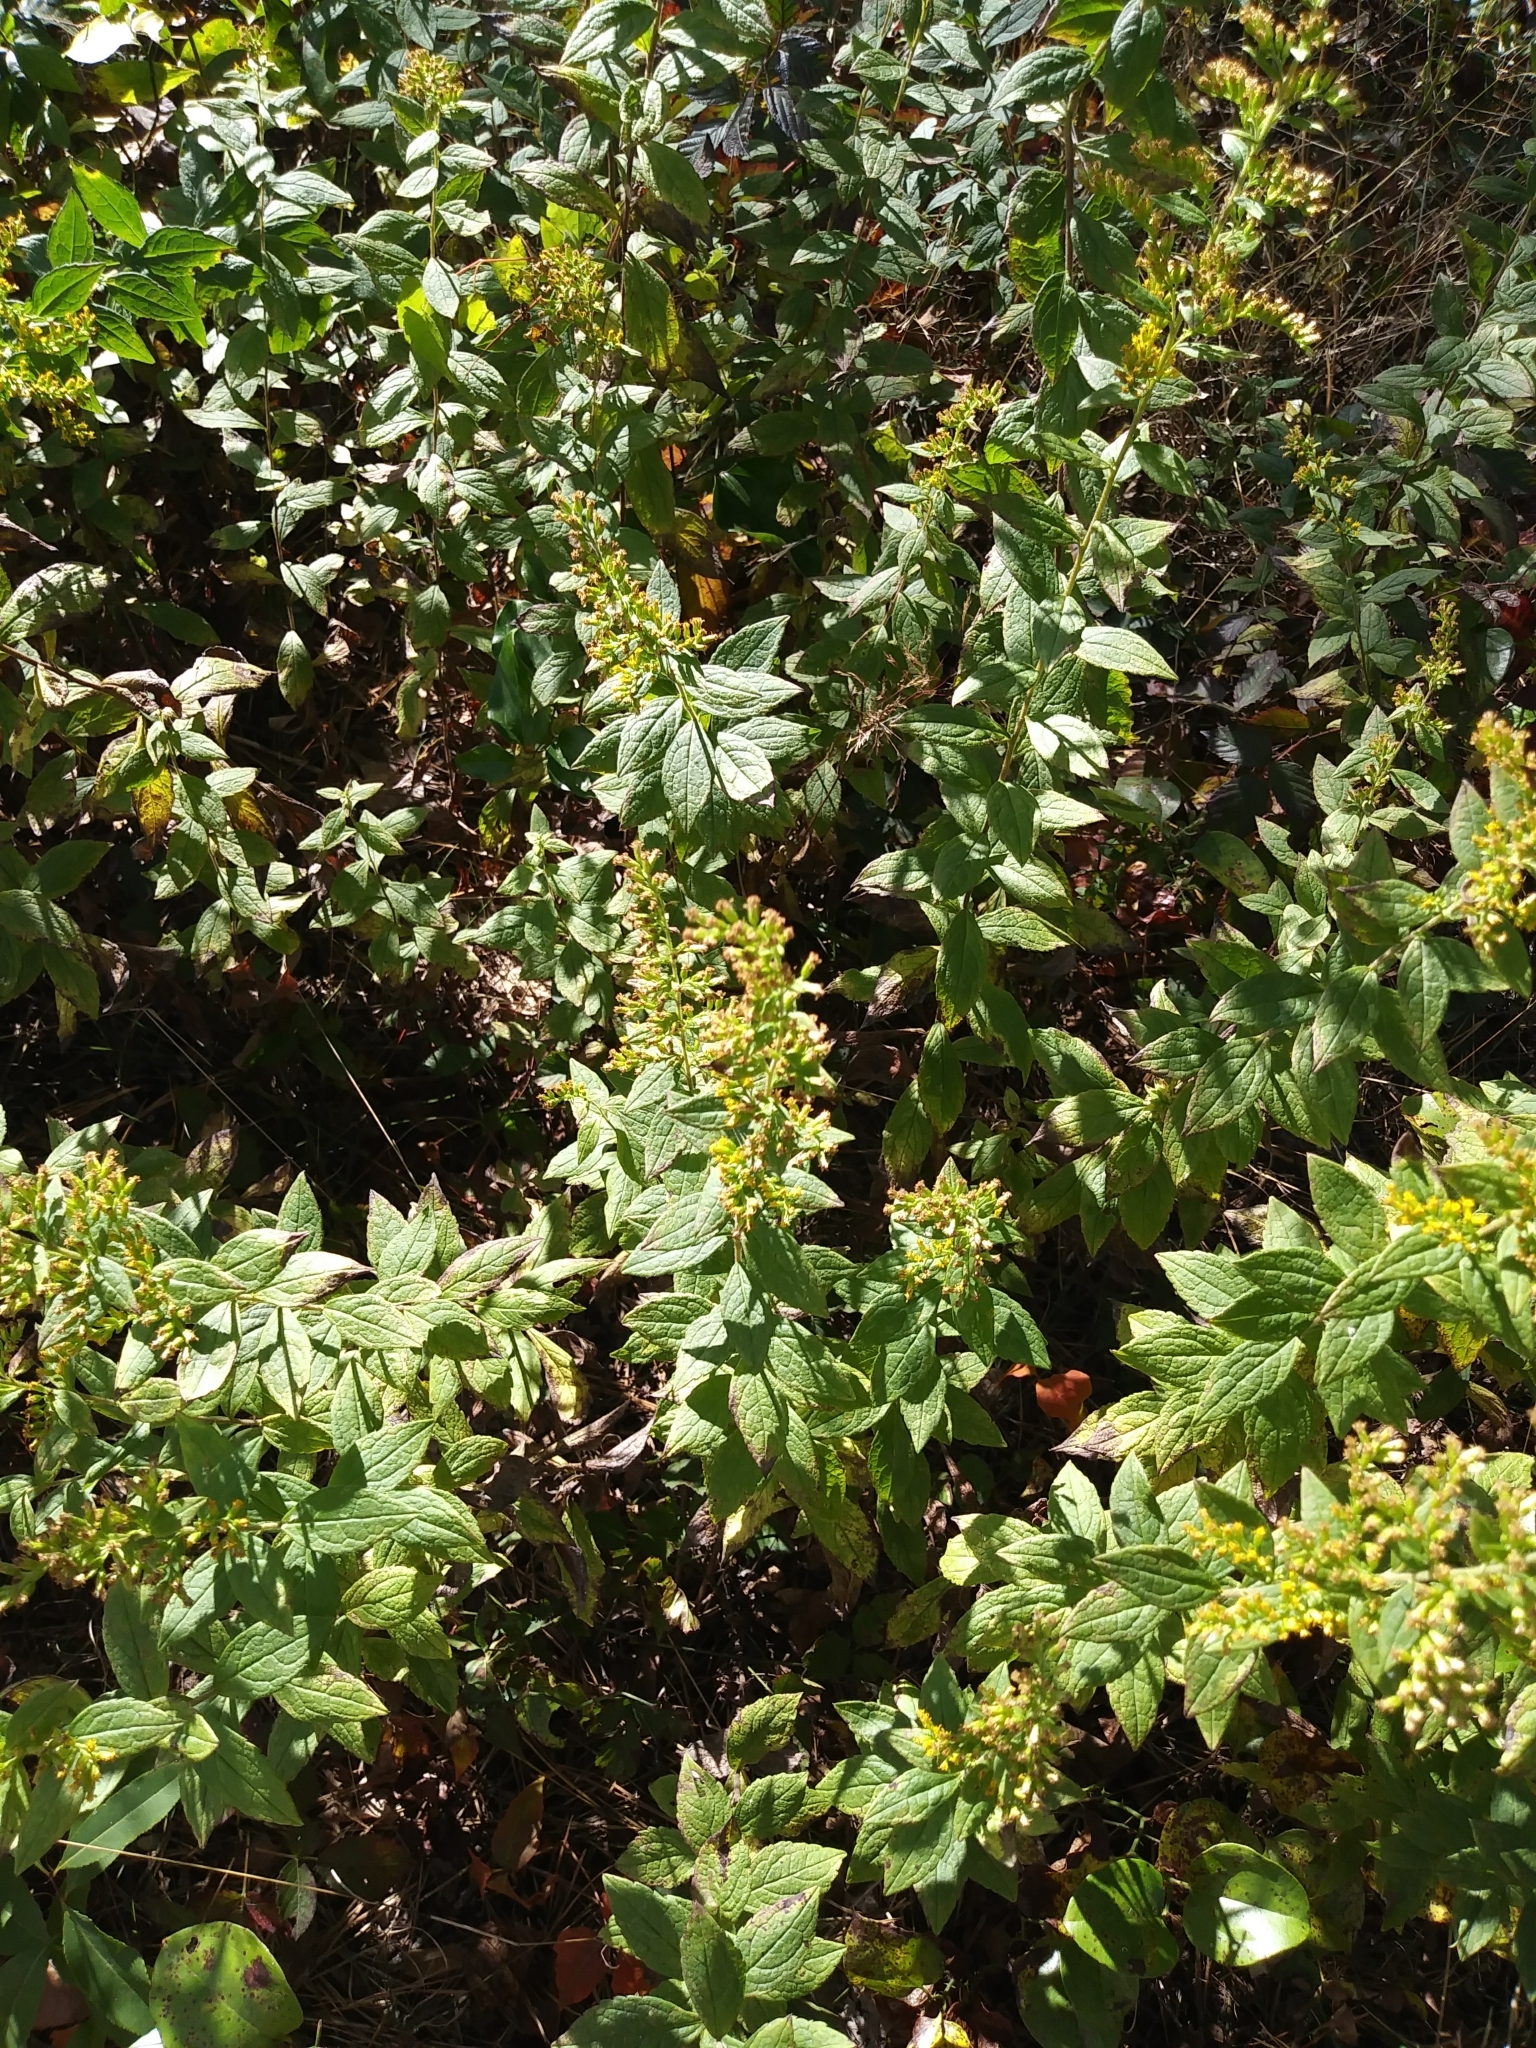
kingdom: Plantae
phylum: Tracheophyta
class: Magnoliopsida
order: Asterales
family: Asteraceae
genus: Solidago
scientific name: Solidago rugosa
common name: Rough-stemmed goldenrod
